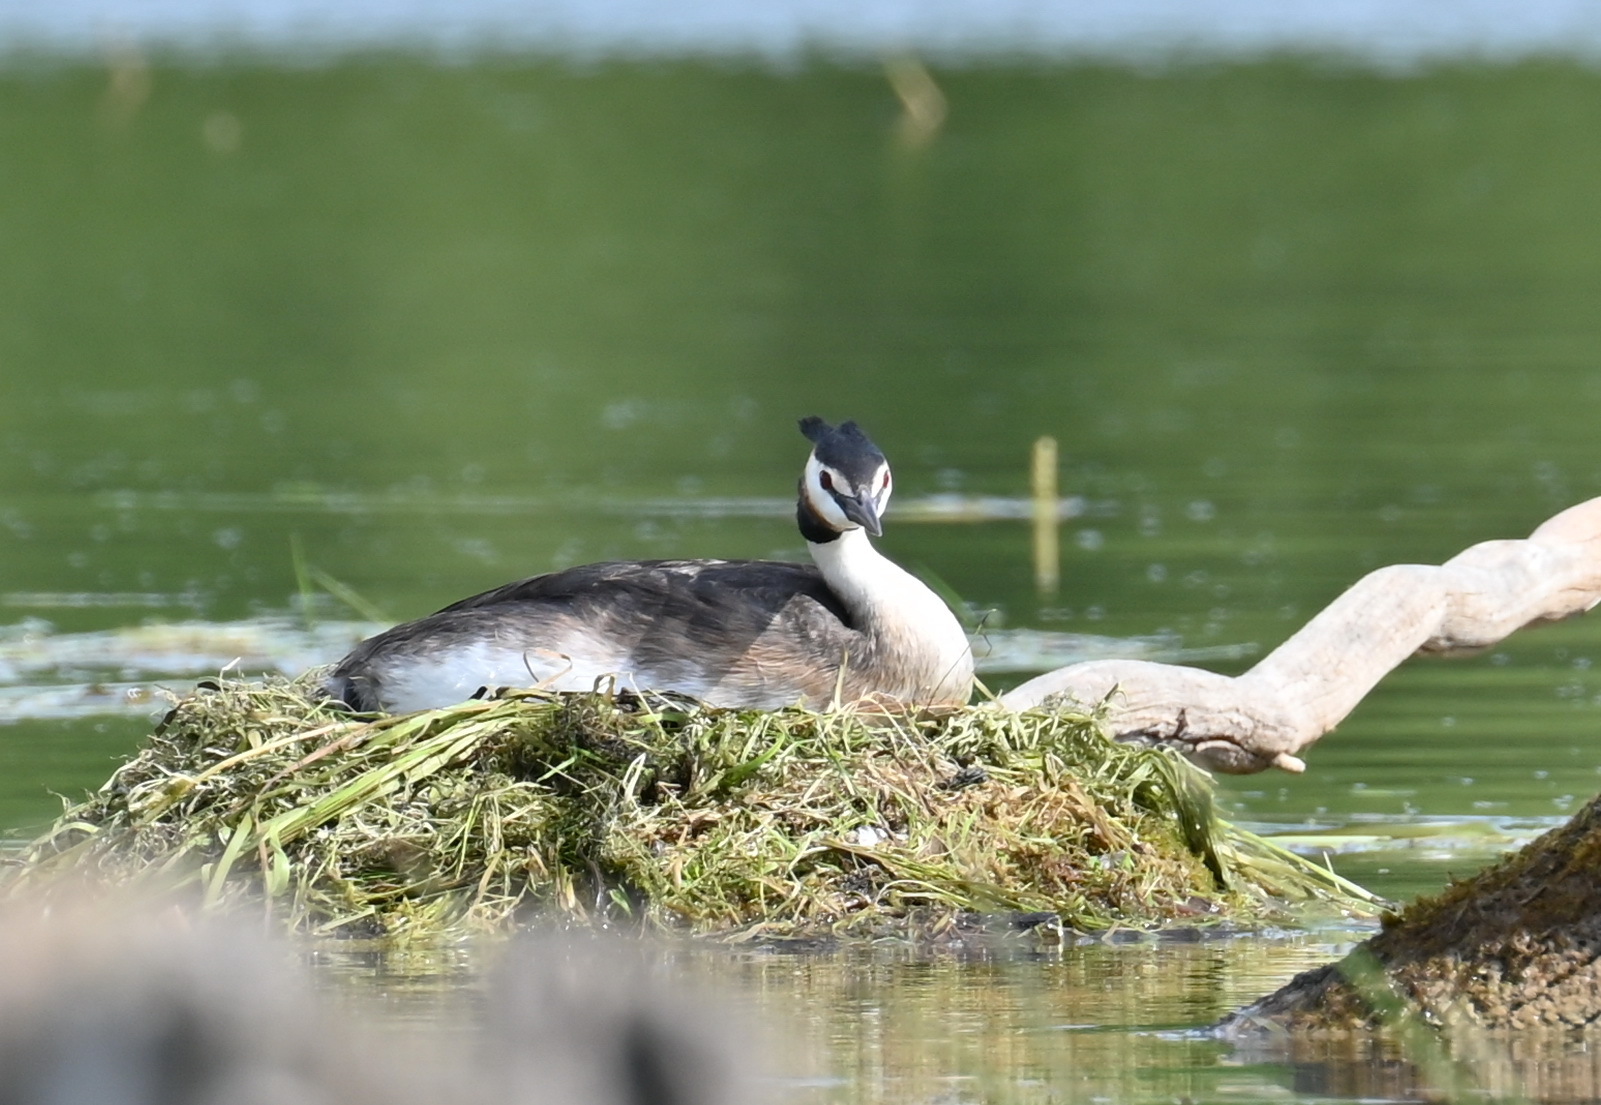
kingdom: Animalia
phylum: Chordata
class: Aves
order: Podicipediformes
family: Podicipedidae
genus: Podiceps
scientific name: Podiceps cristatus
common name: Great crested grebe
